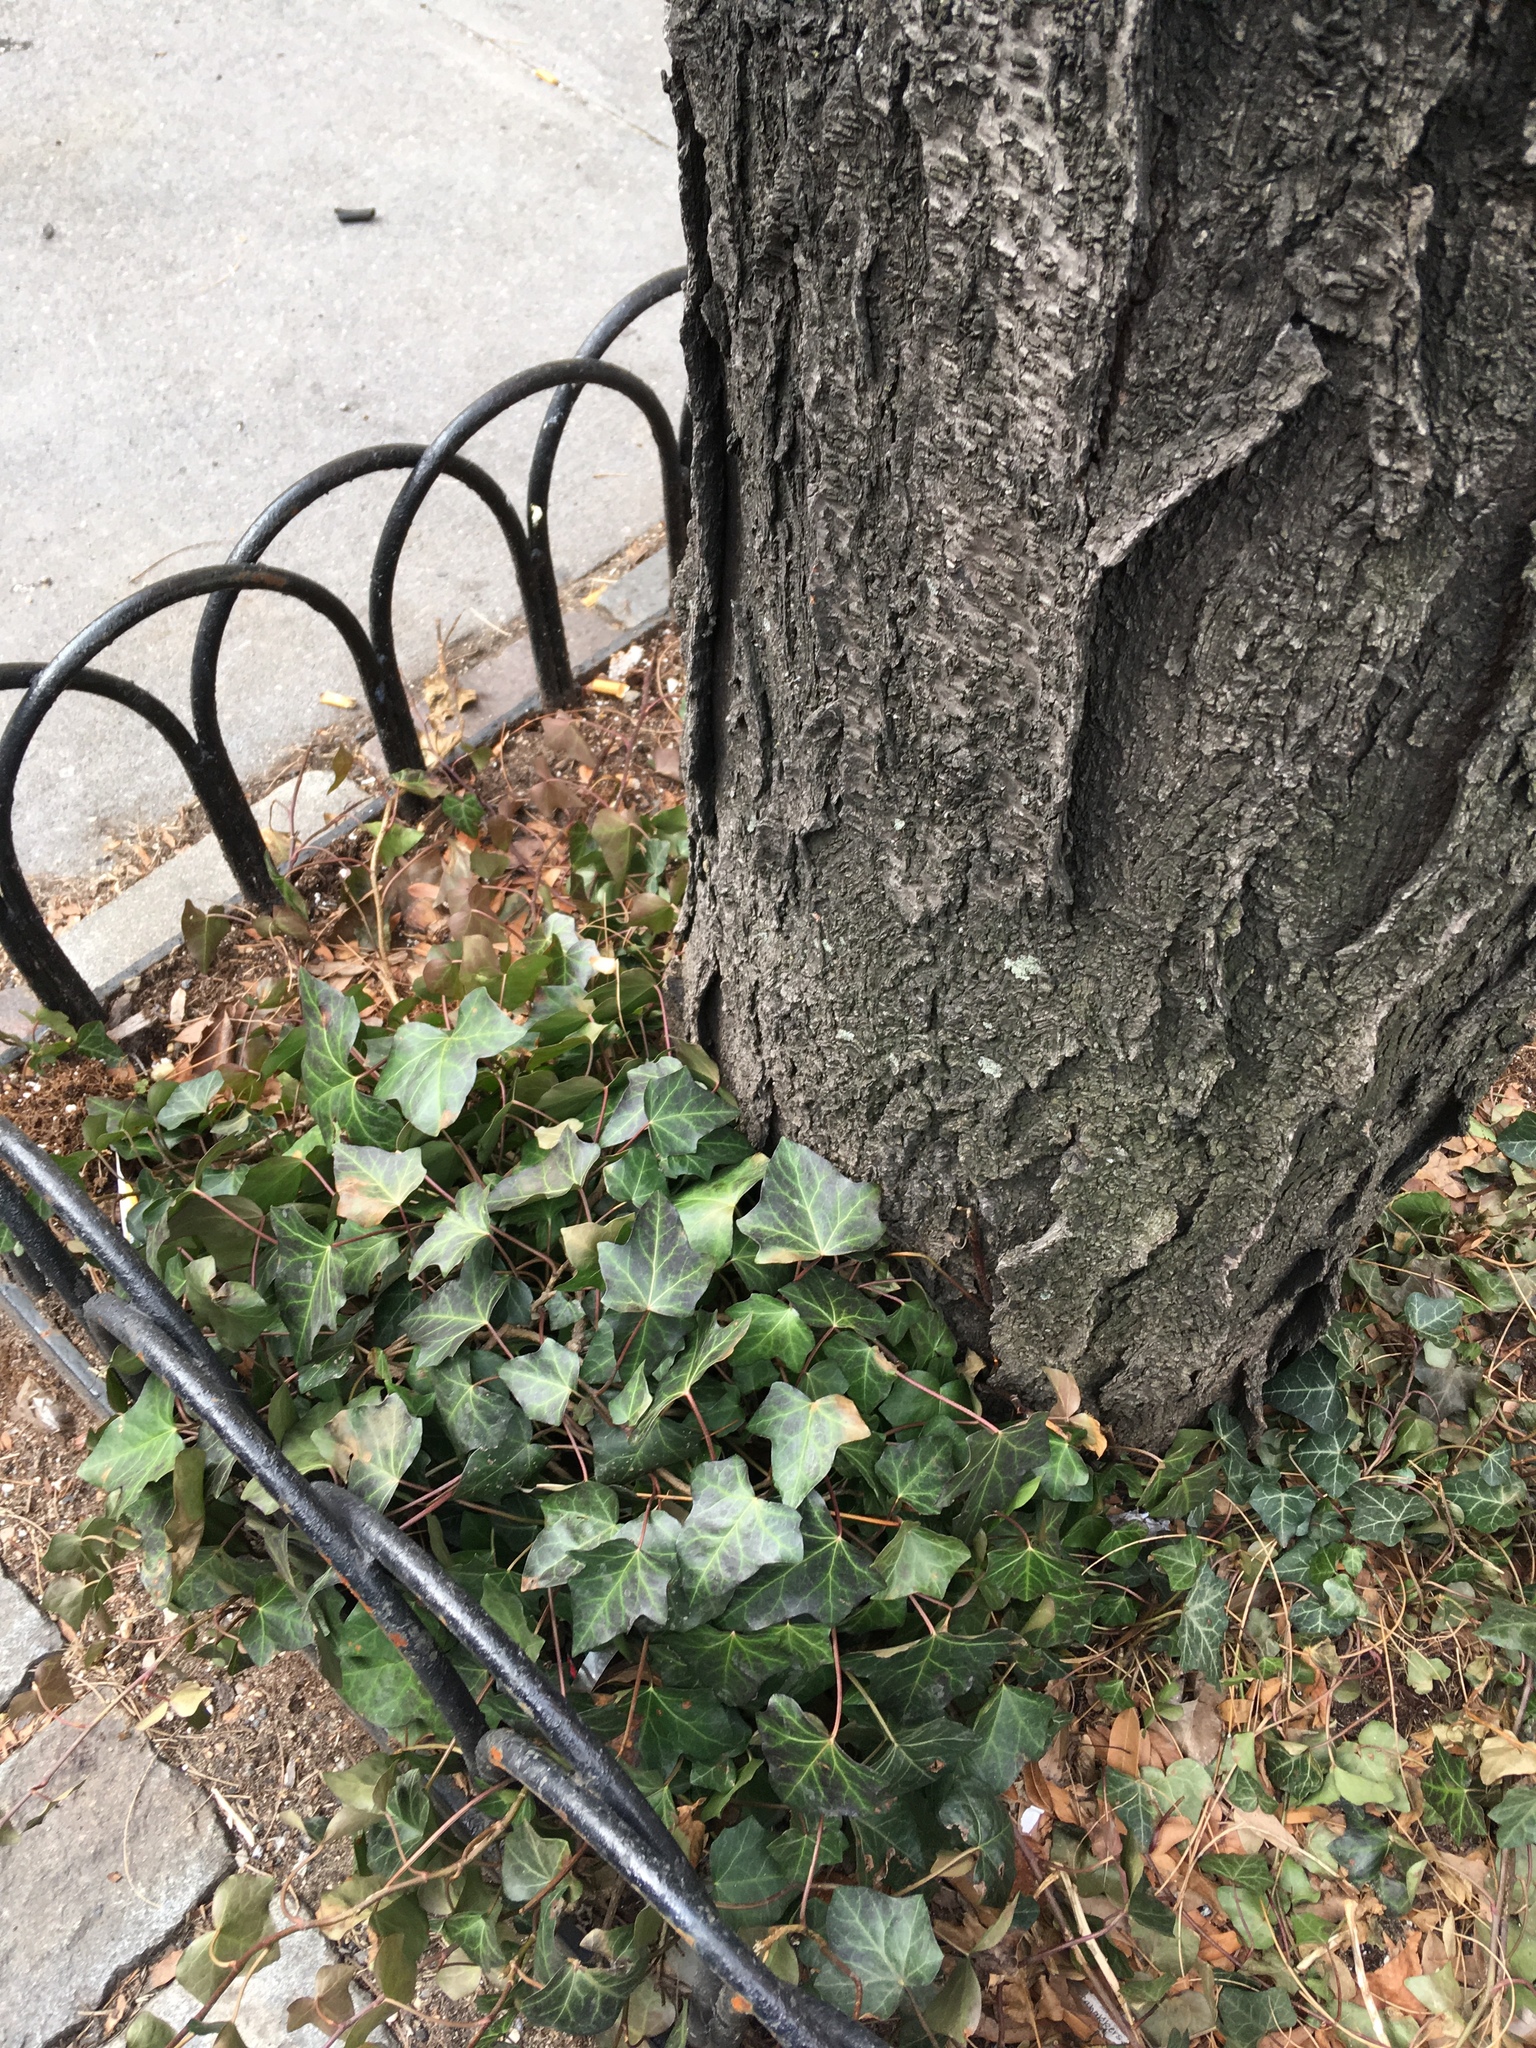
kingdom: Plantae
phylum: Tracheophyta
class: Magnoliopsida
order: Apiales
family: Araliaceae
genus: Hedera
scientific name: Hedera helix
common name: Ivy
